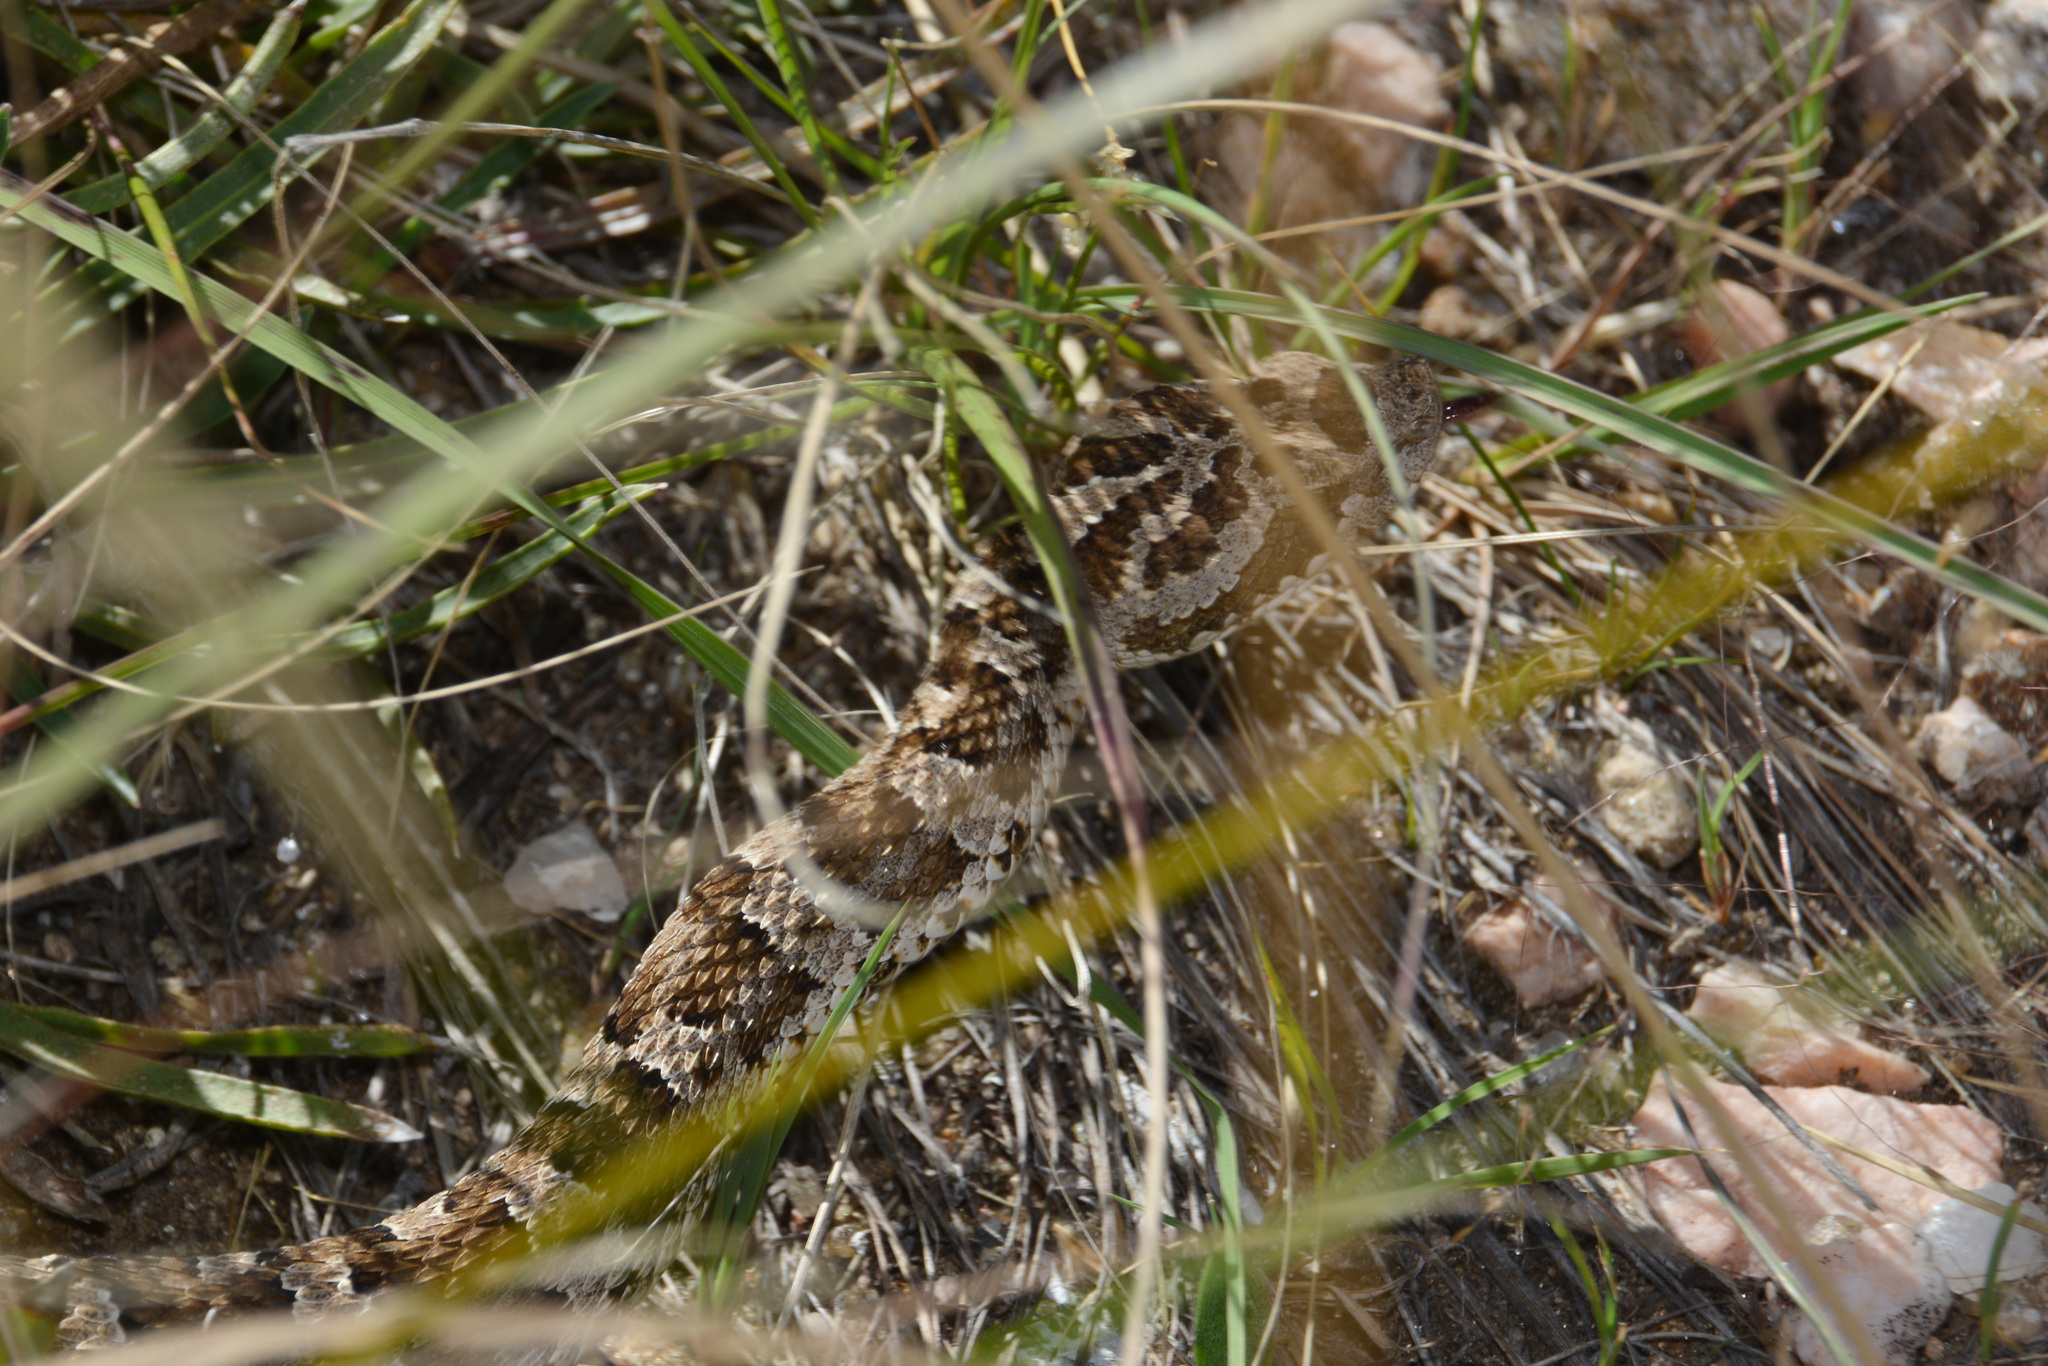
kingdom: Animalia
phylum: Chordata
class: Squamata
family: Viperidae
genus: Bothrops
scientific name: Bothrops ammodytoides
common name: Yararanata
